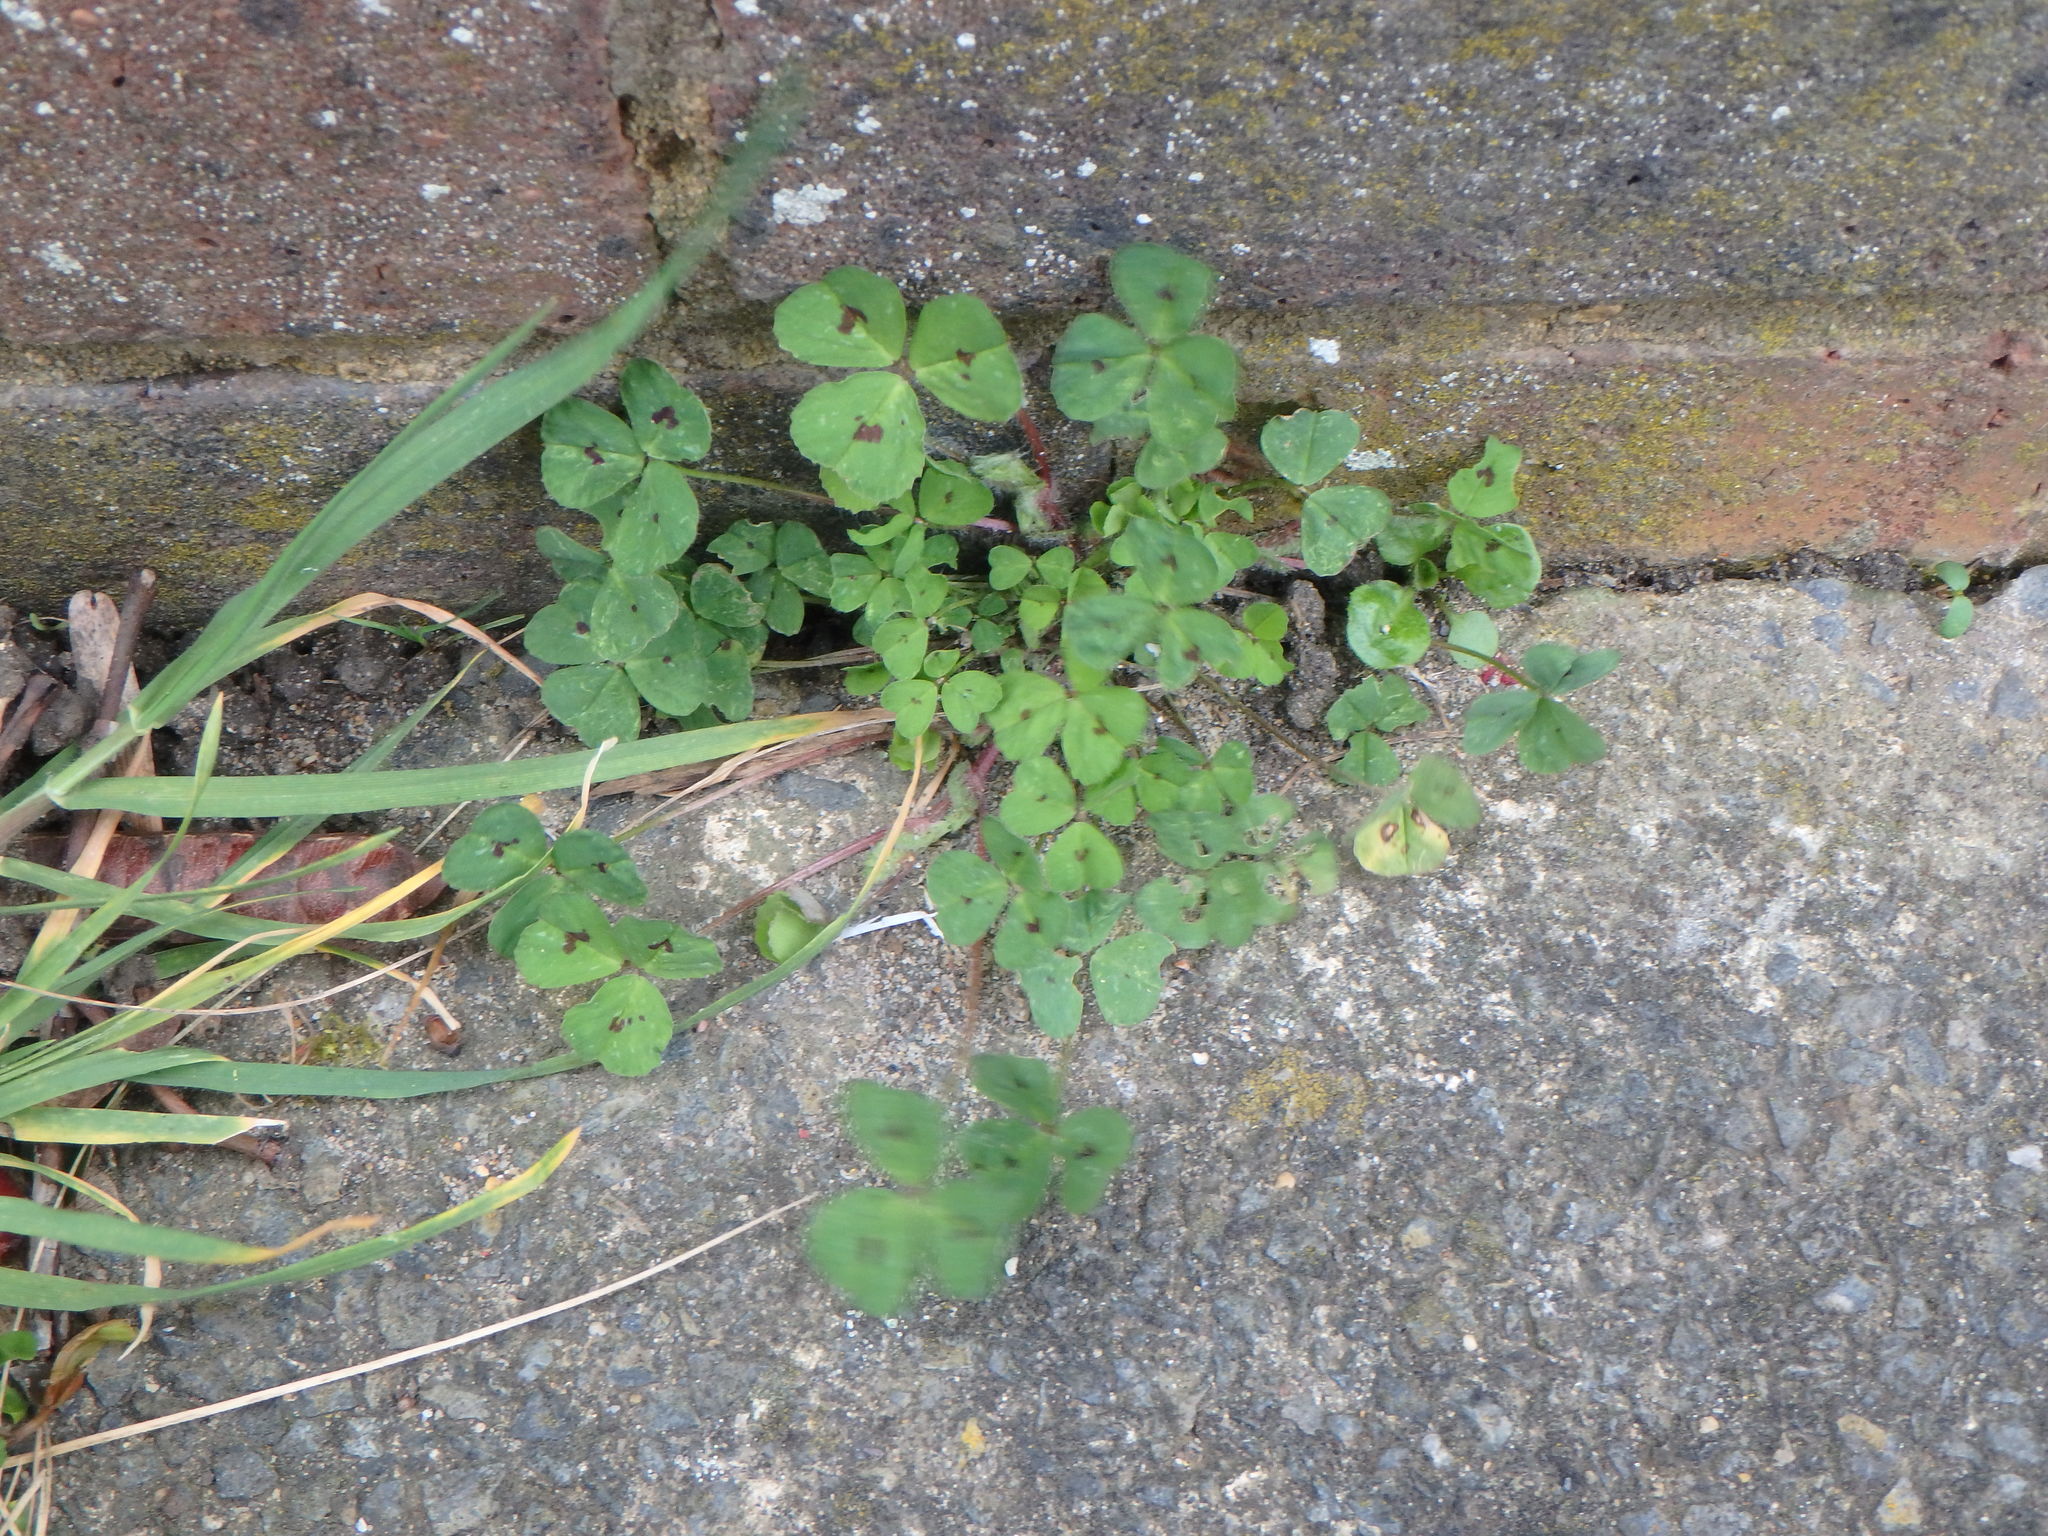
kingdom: Plantae
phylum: Tracheophyta
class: Magnoliopsida
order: Fabales
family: Fabaceae
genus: Medicago
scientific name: Medicago arabica
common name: Spotted medick
